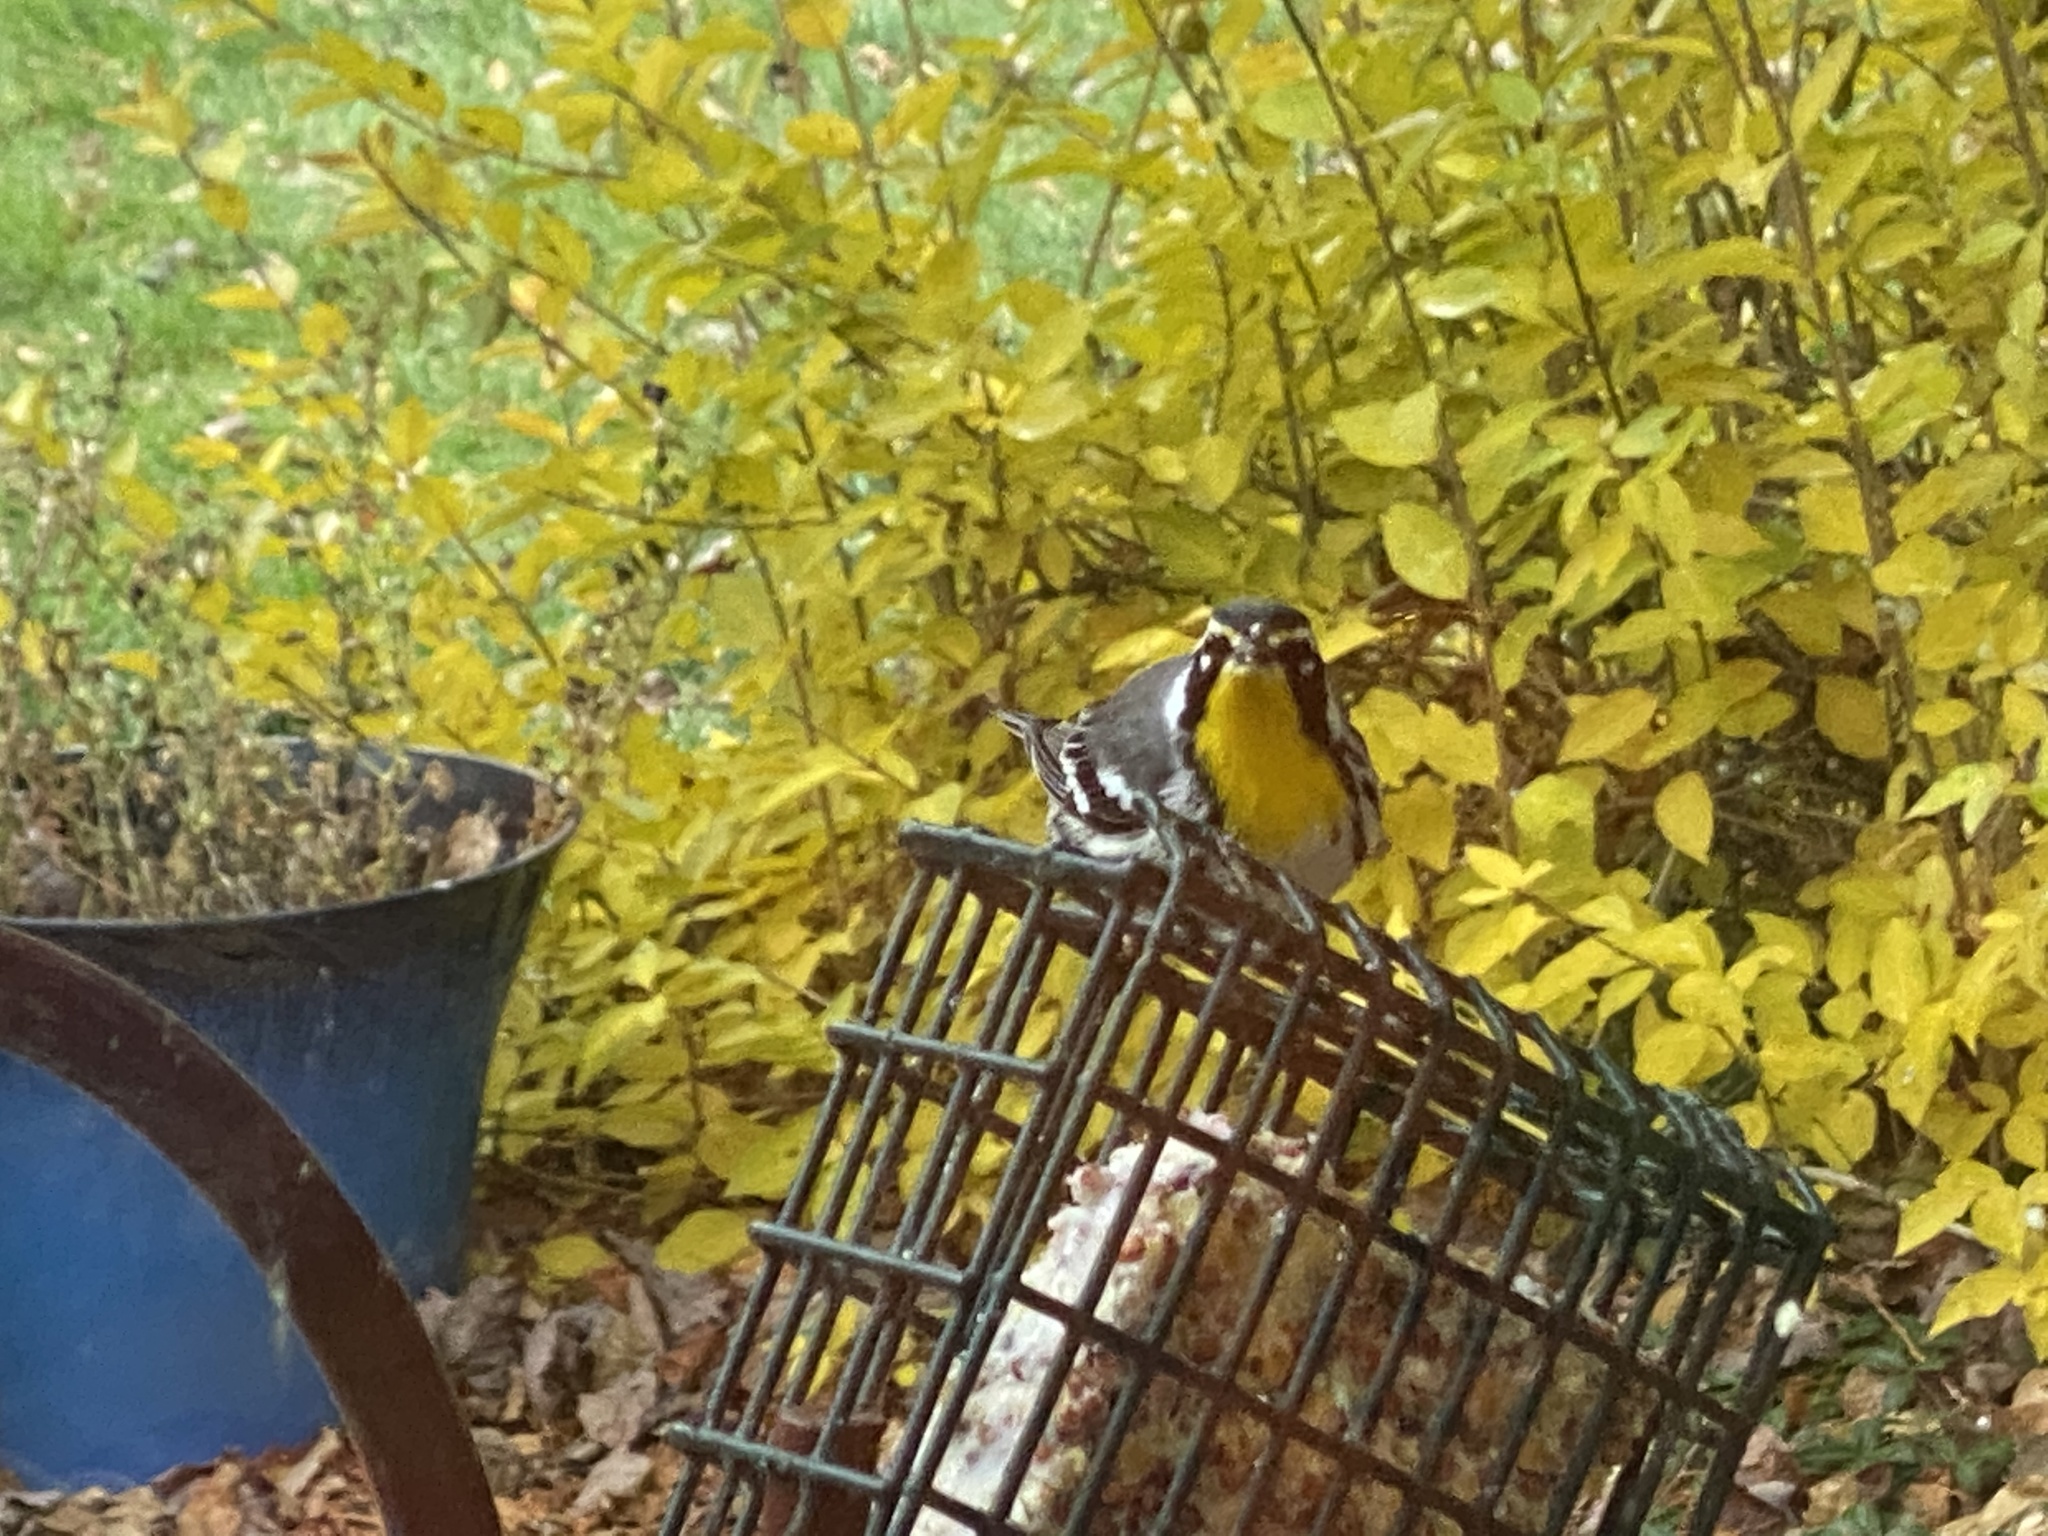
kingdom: Animalia
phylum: Chordata
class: Aves
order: Passeriformes
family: Parulidae
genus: Setophaga
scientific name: Setophaga dominica
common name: Yellow-throated warbler
